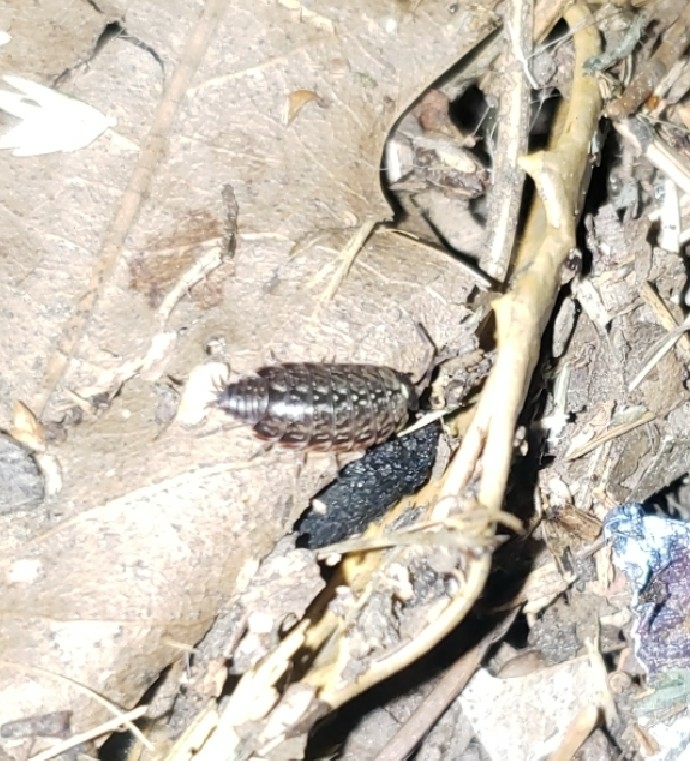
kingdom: Animalia
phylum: Arthropoda
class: Malacostraca
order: Isopoda
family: Philosciidae
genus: Philoscia
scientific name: Philoscia muscorum
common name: Common striped woodlouse
